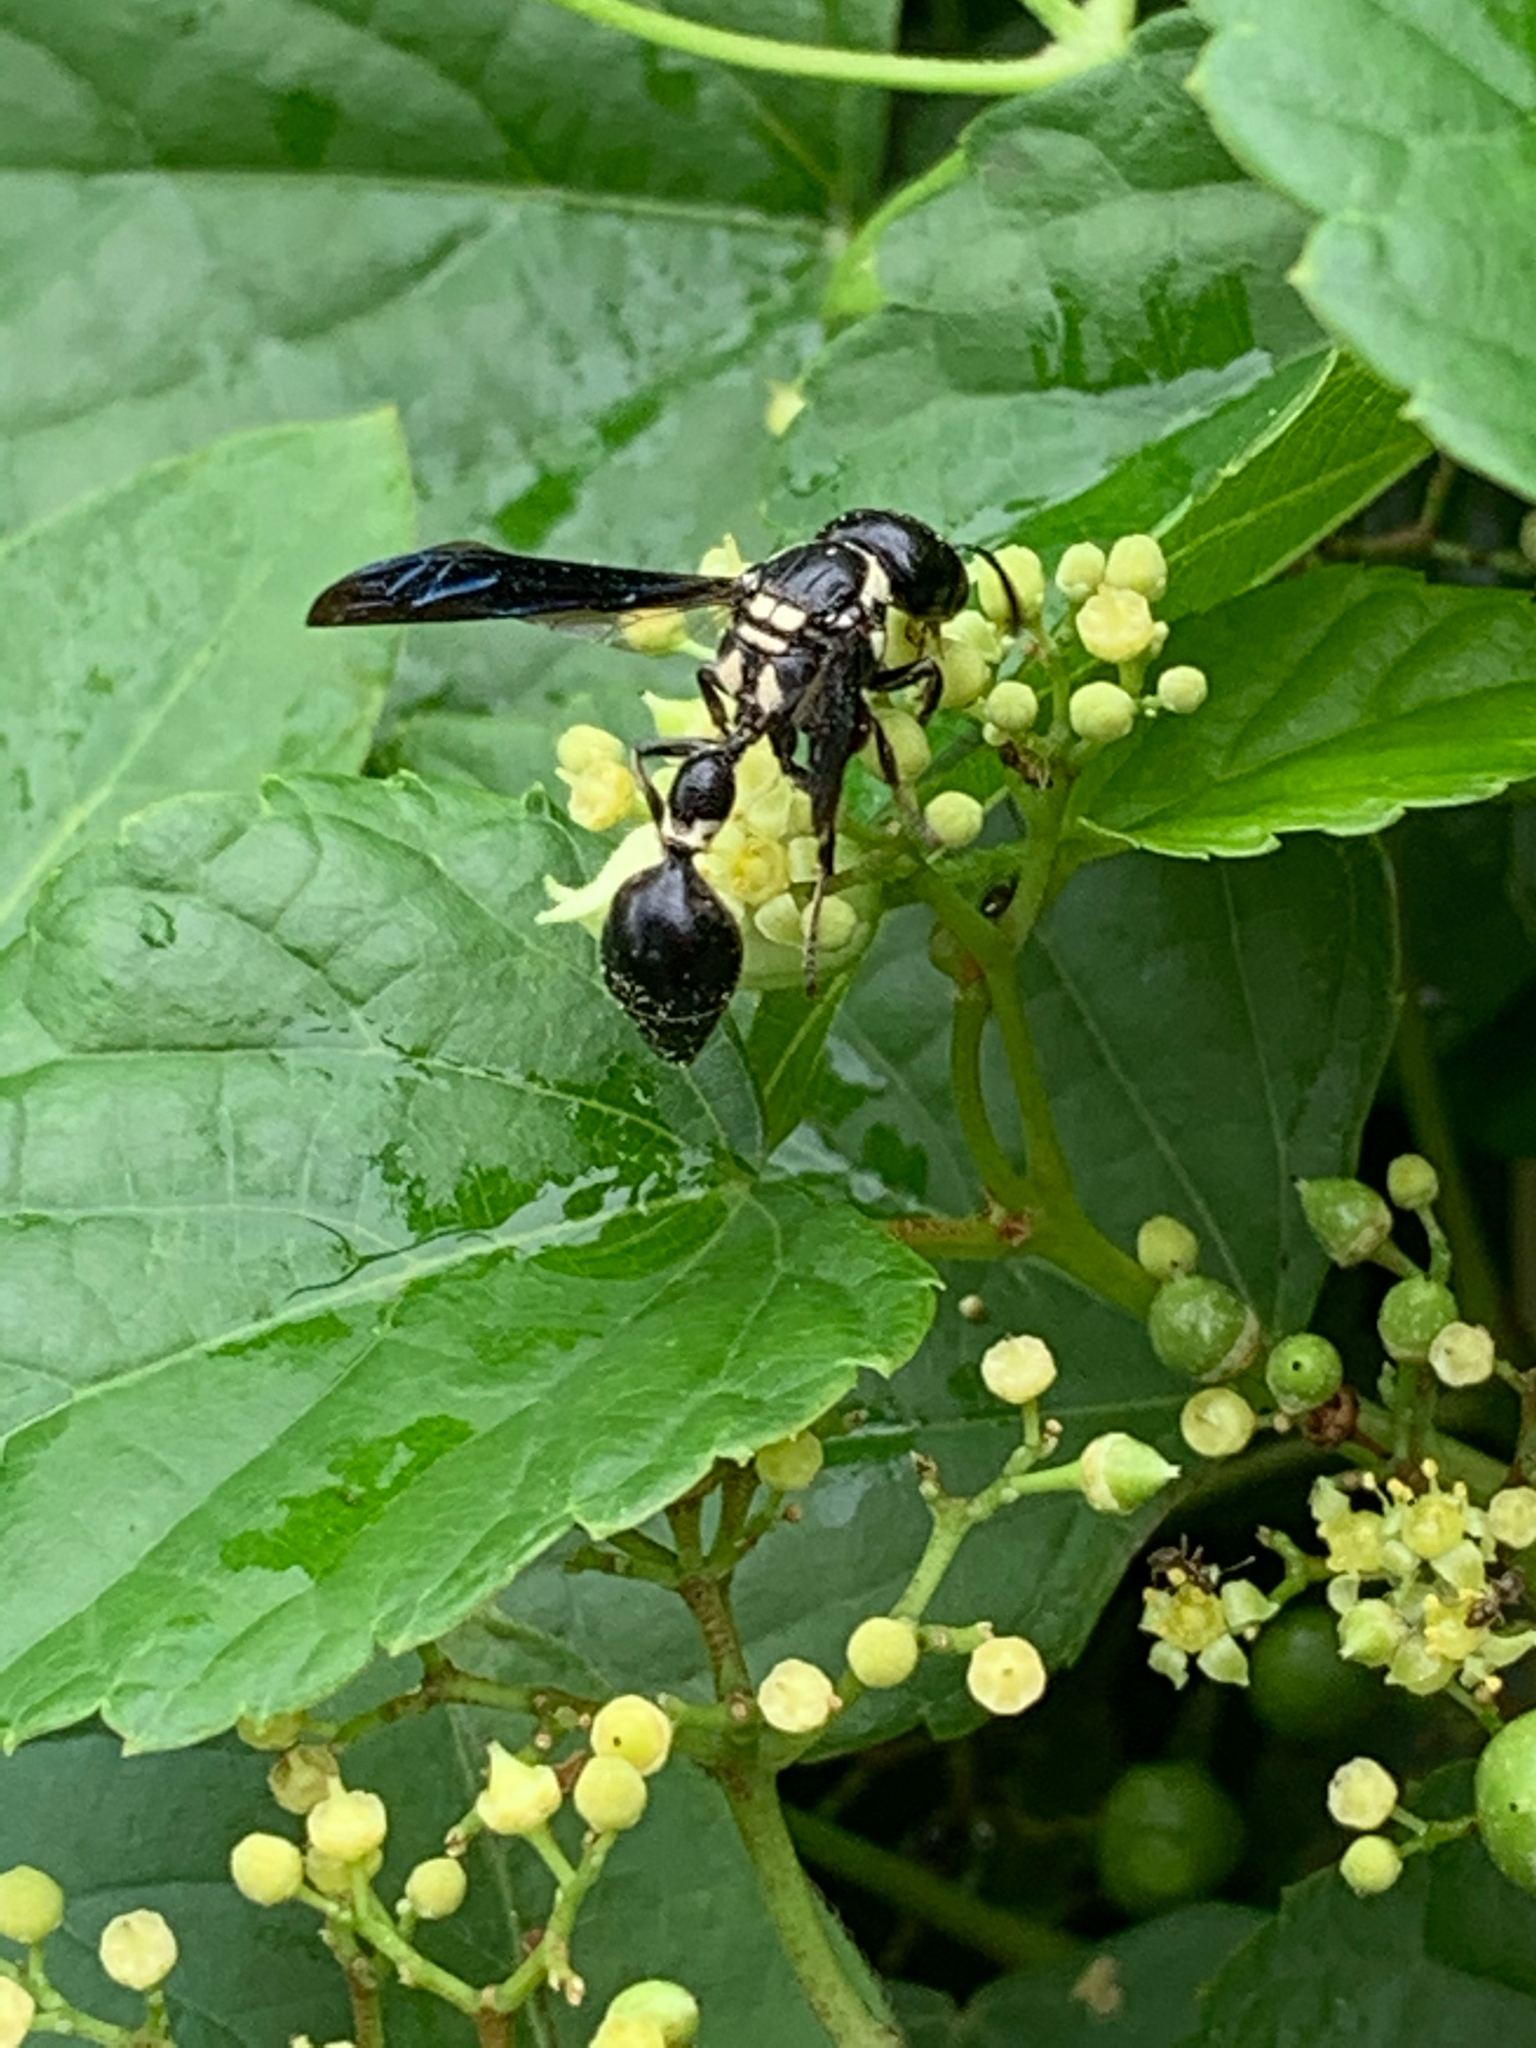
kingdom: Animalia
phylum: Arthropoda
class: Insecta
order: Hymenoptera
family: Eumenidae
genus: Zethus
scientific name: Zethus spinipes
